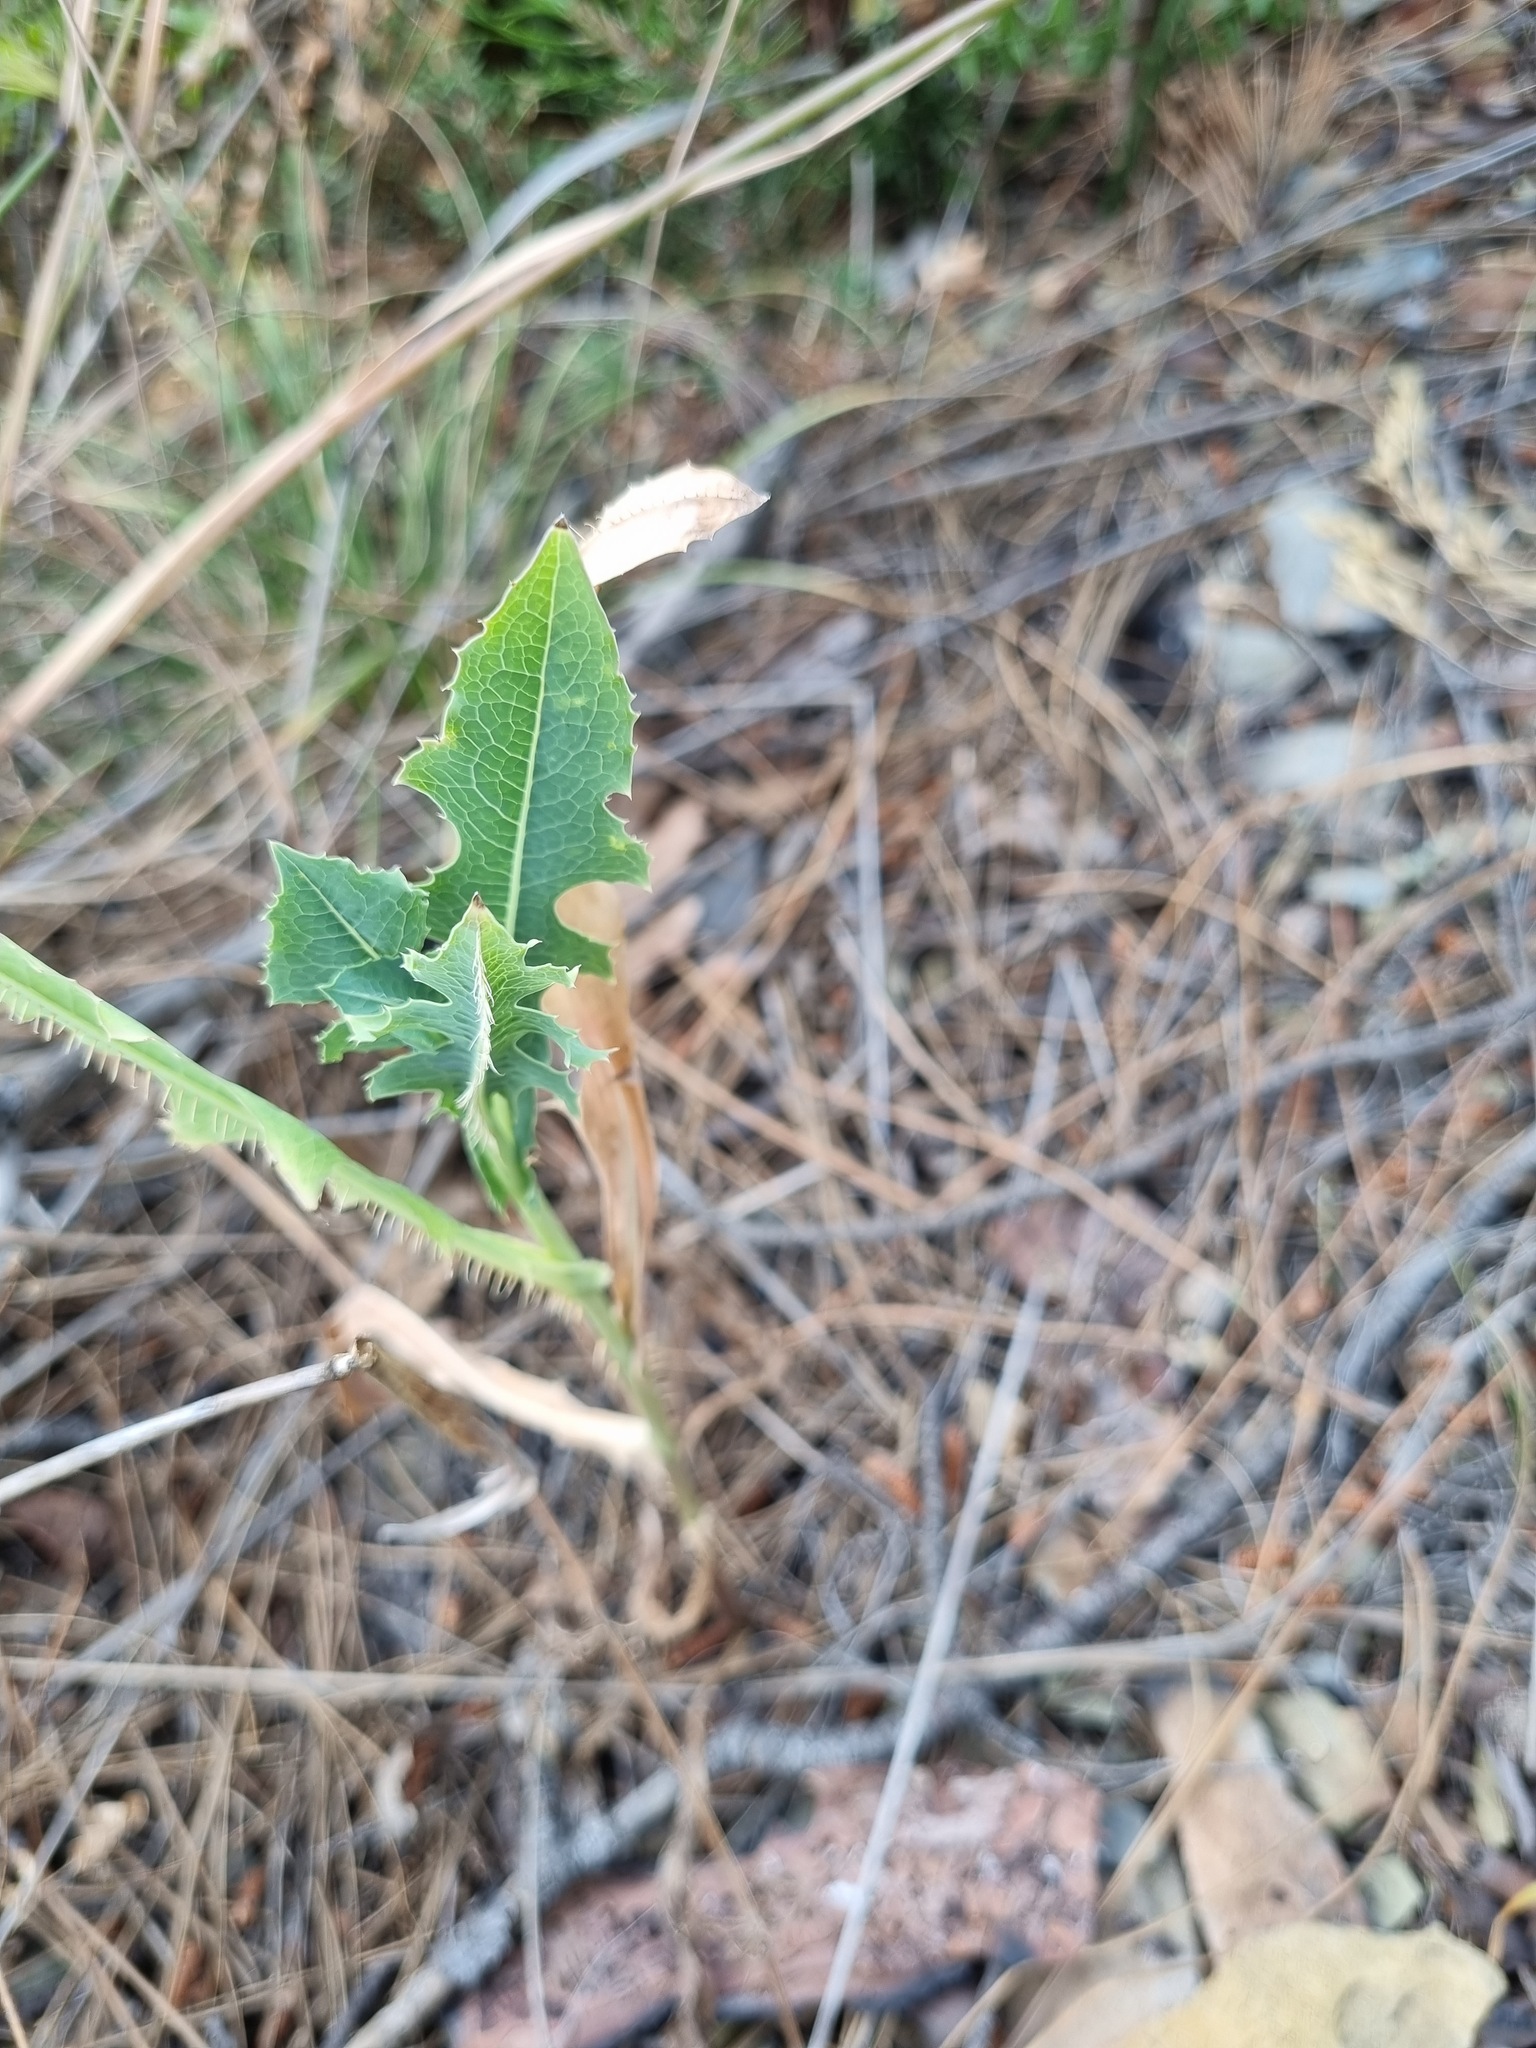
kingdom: Plantae
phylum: Tracheophyta
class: Magnoliopsida
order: Asterales
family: Asteraceae
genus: Lactuca
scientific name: Lactuca serriola
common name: Prickly lettuce
